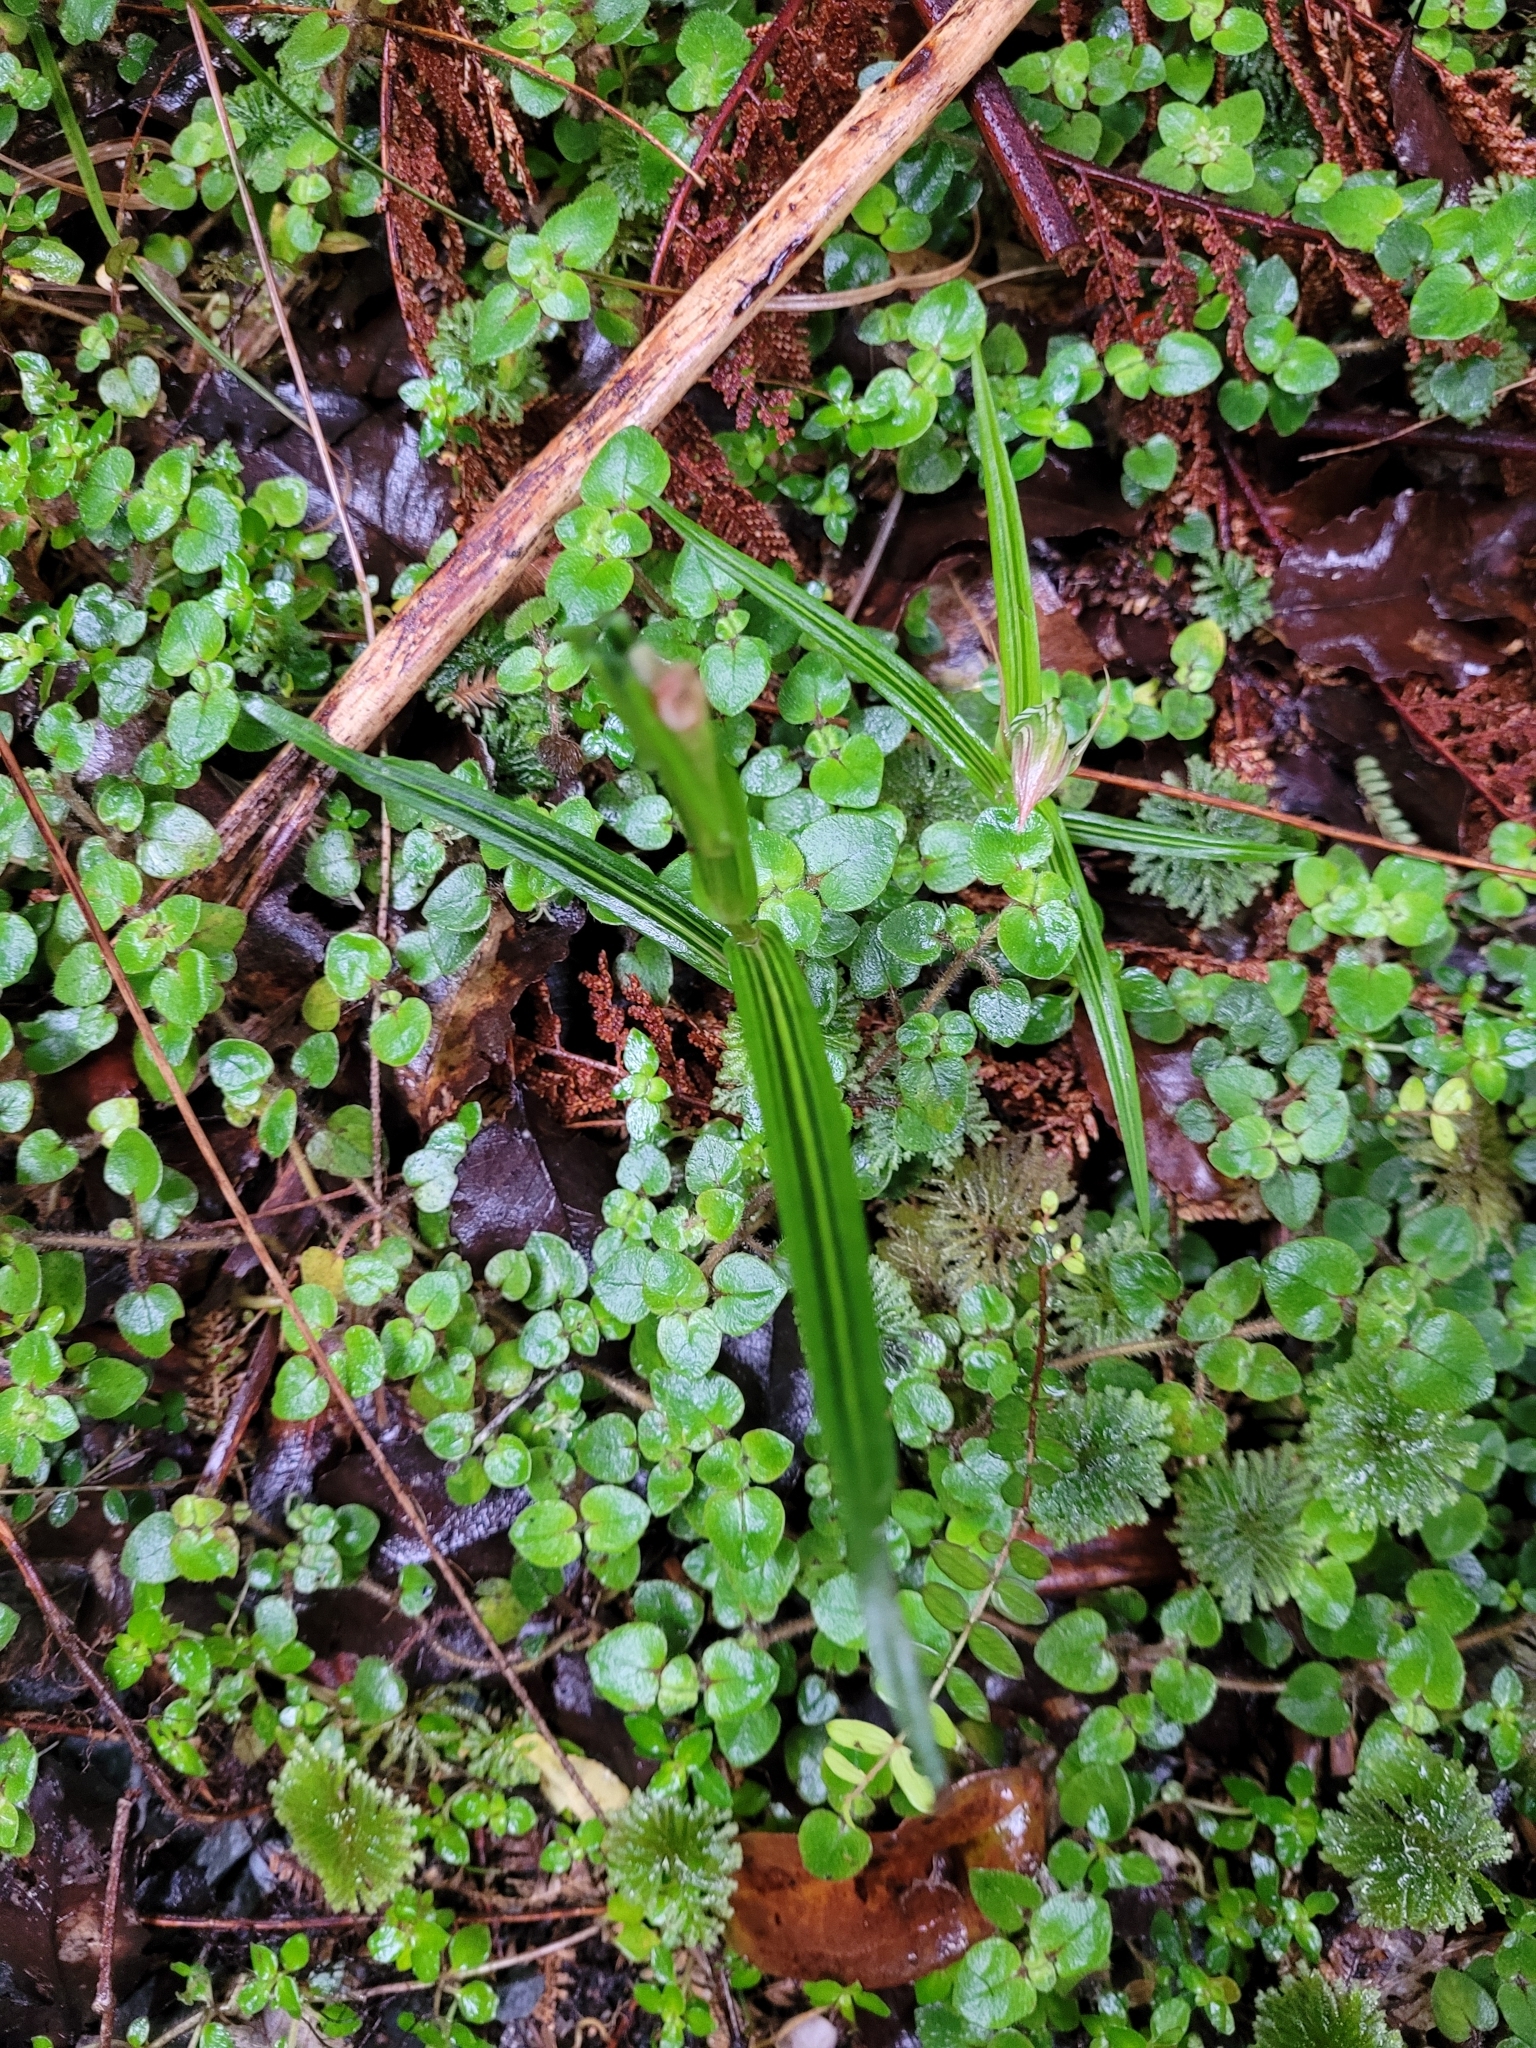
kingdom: Plantae
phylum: Tracheophyta
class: Liliopsida
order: Asparagales
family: Orchidaceae
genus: Pterostylis
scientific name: Pterostylis irsoniana
